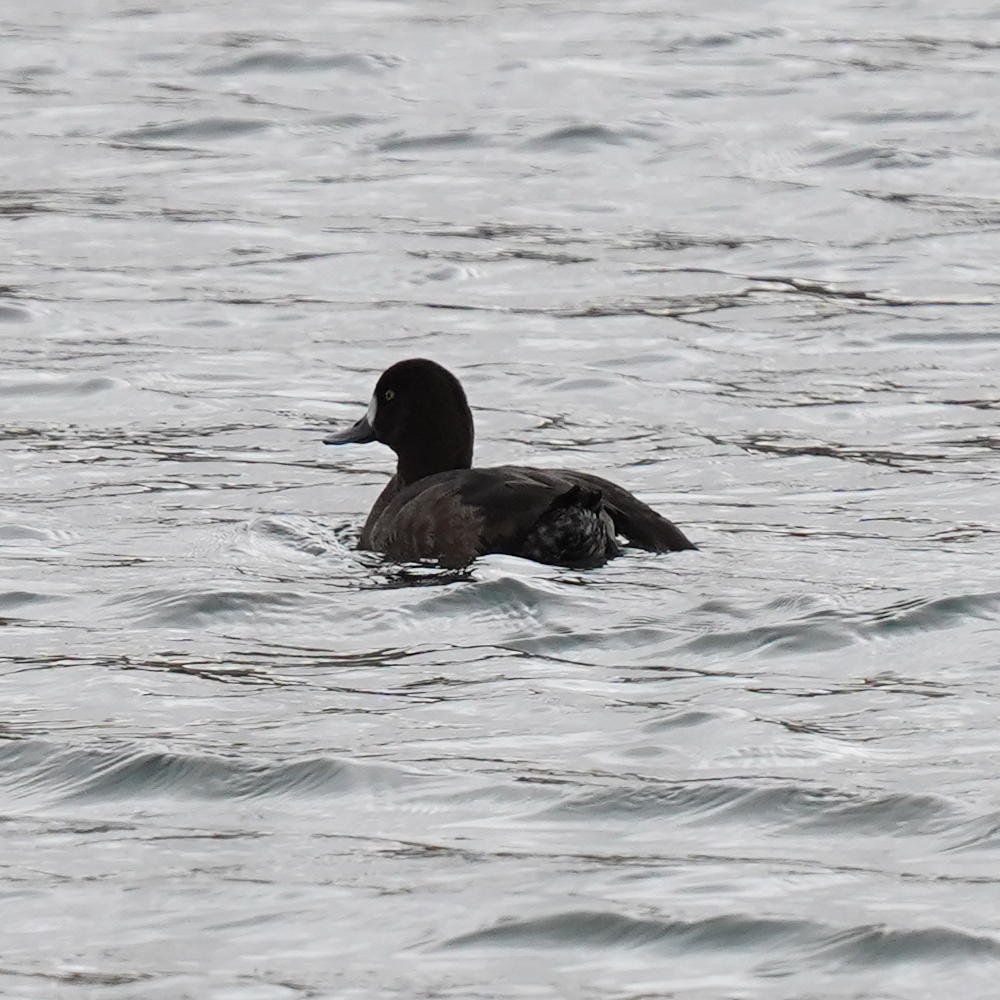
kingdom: Animalia
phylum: Chordata
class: Aves
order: Anseriformes
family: Anatidae
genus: Aythya
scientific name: Aythya marila
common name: Greater scaup
